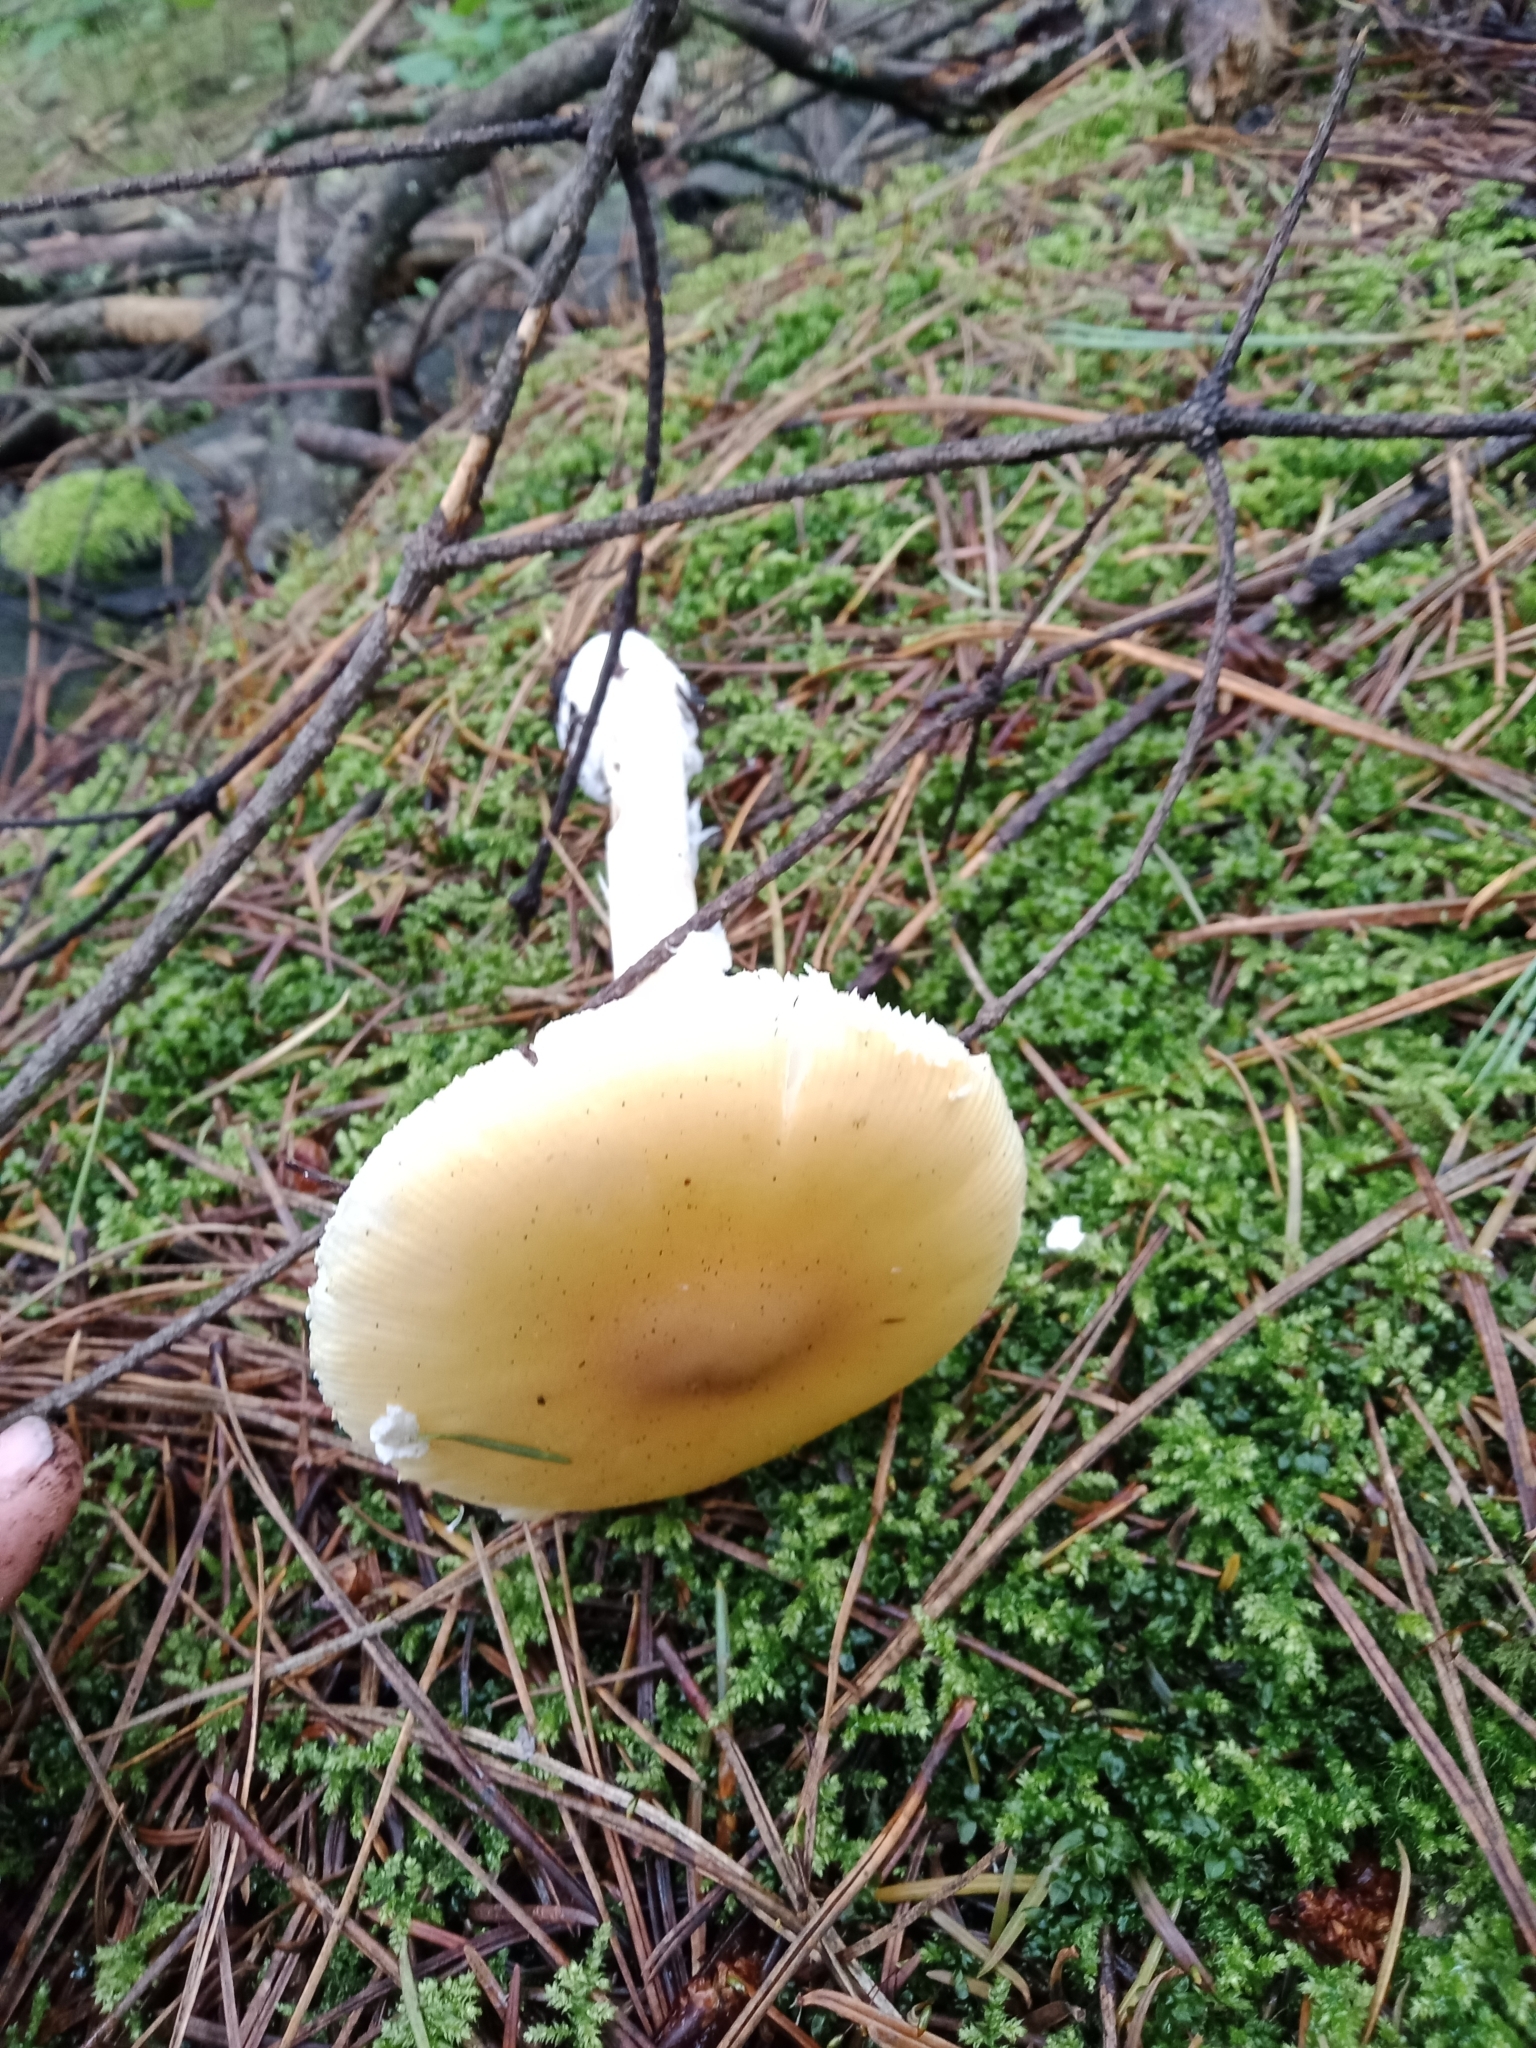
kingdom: Fungi
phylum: Basidiomycota
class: Agaricomycetes
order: Agaricales
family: Amanitaceae
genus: Amanita
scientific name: Amanita xylinivolva
